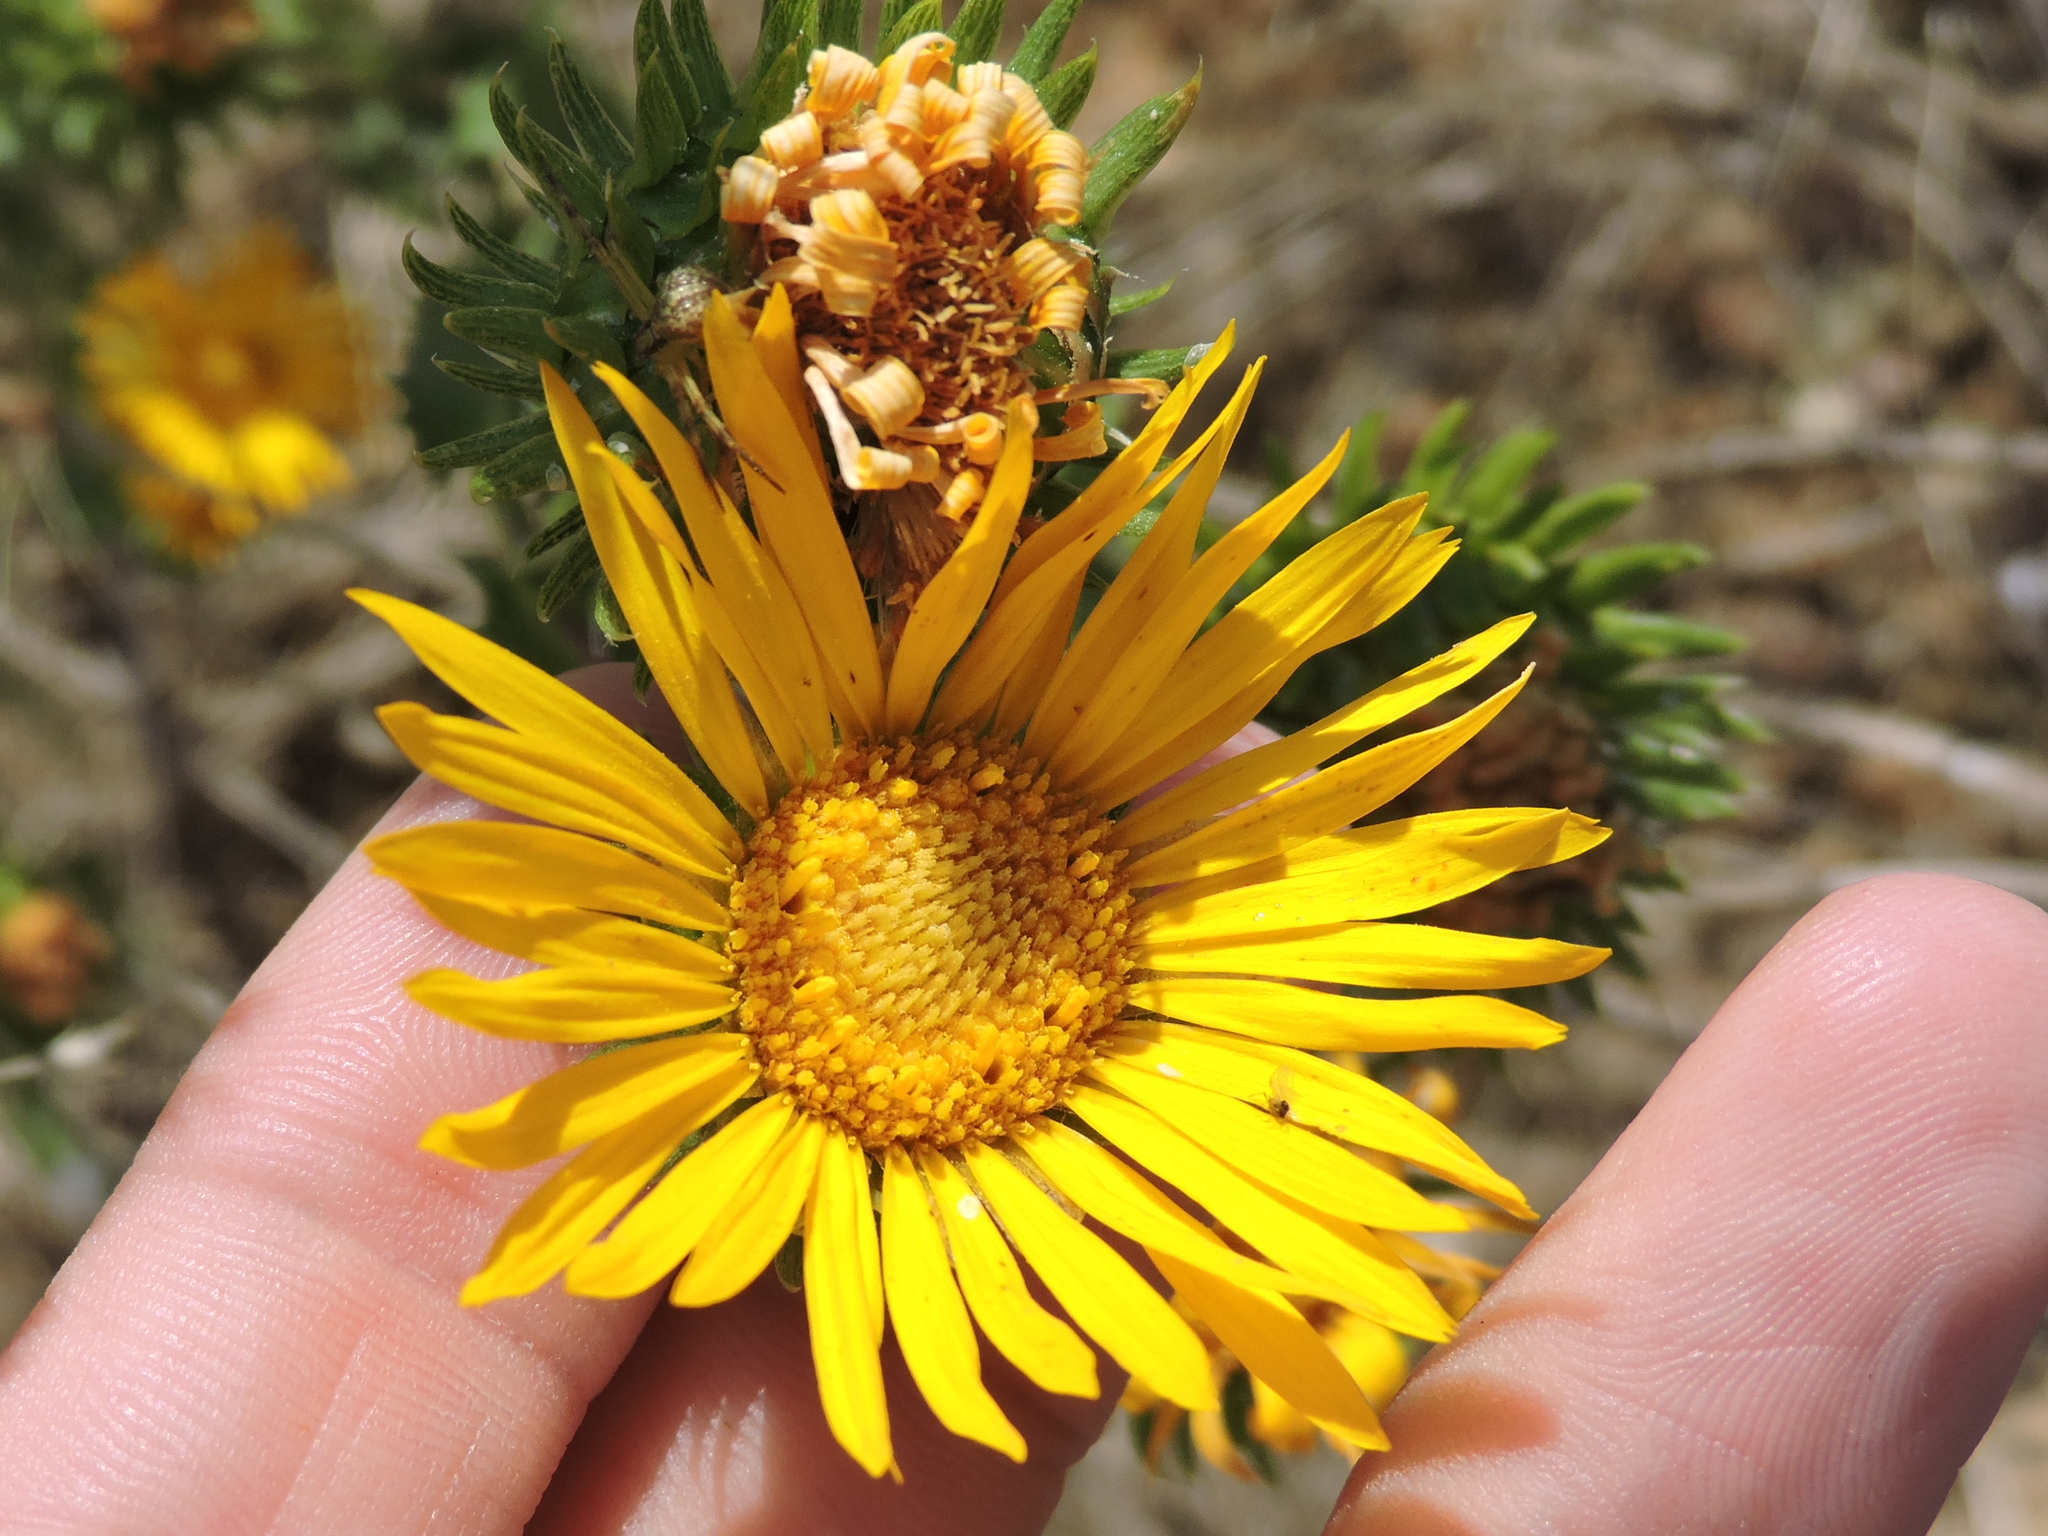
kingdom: Plantae
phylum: Tracheophyta
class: Magnoliopsida
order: Asterales
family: Asteraceae
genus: Grindelia
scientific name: Grindelia ciliata
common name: Goldenweed
